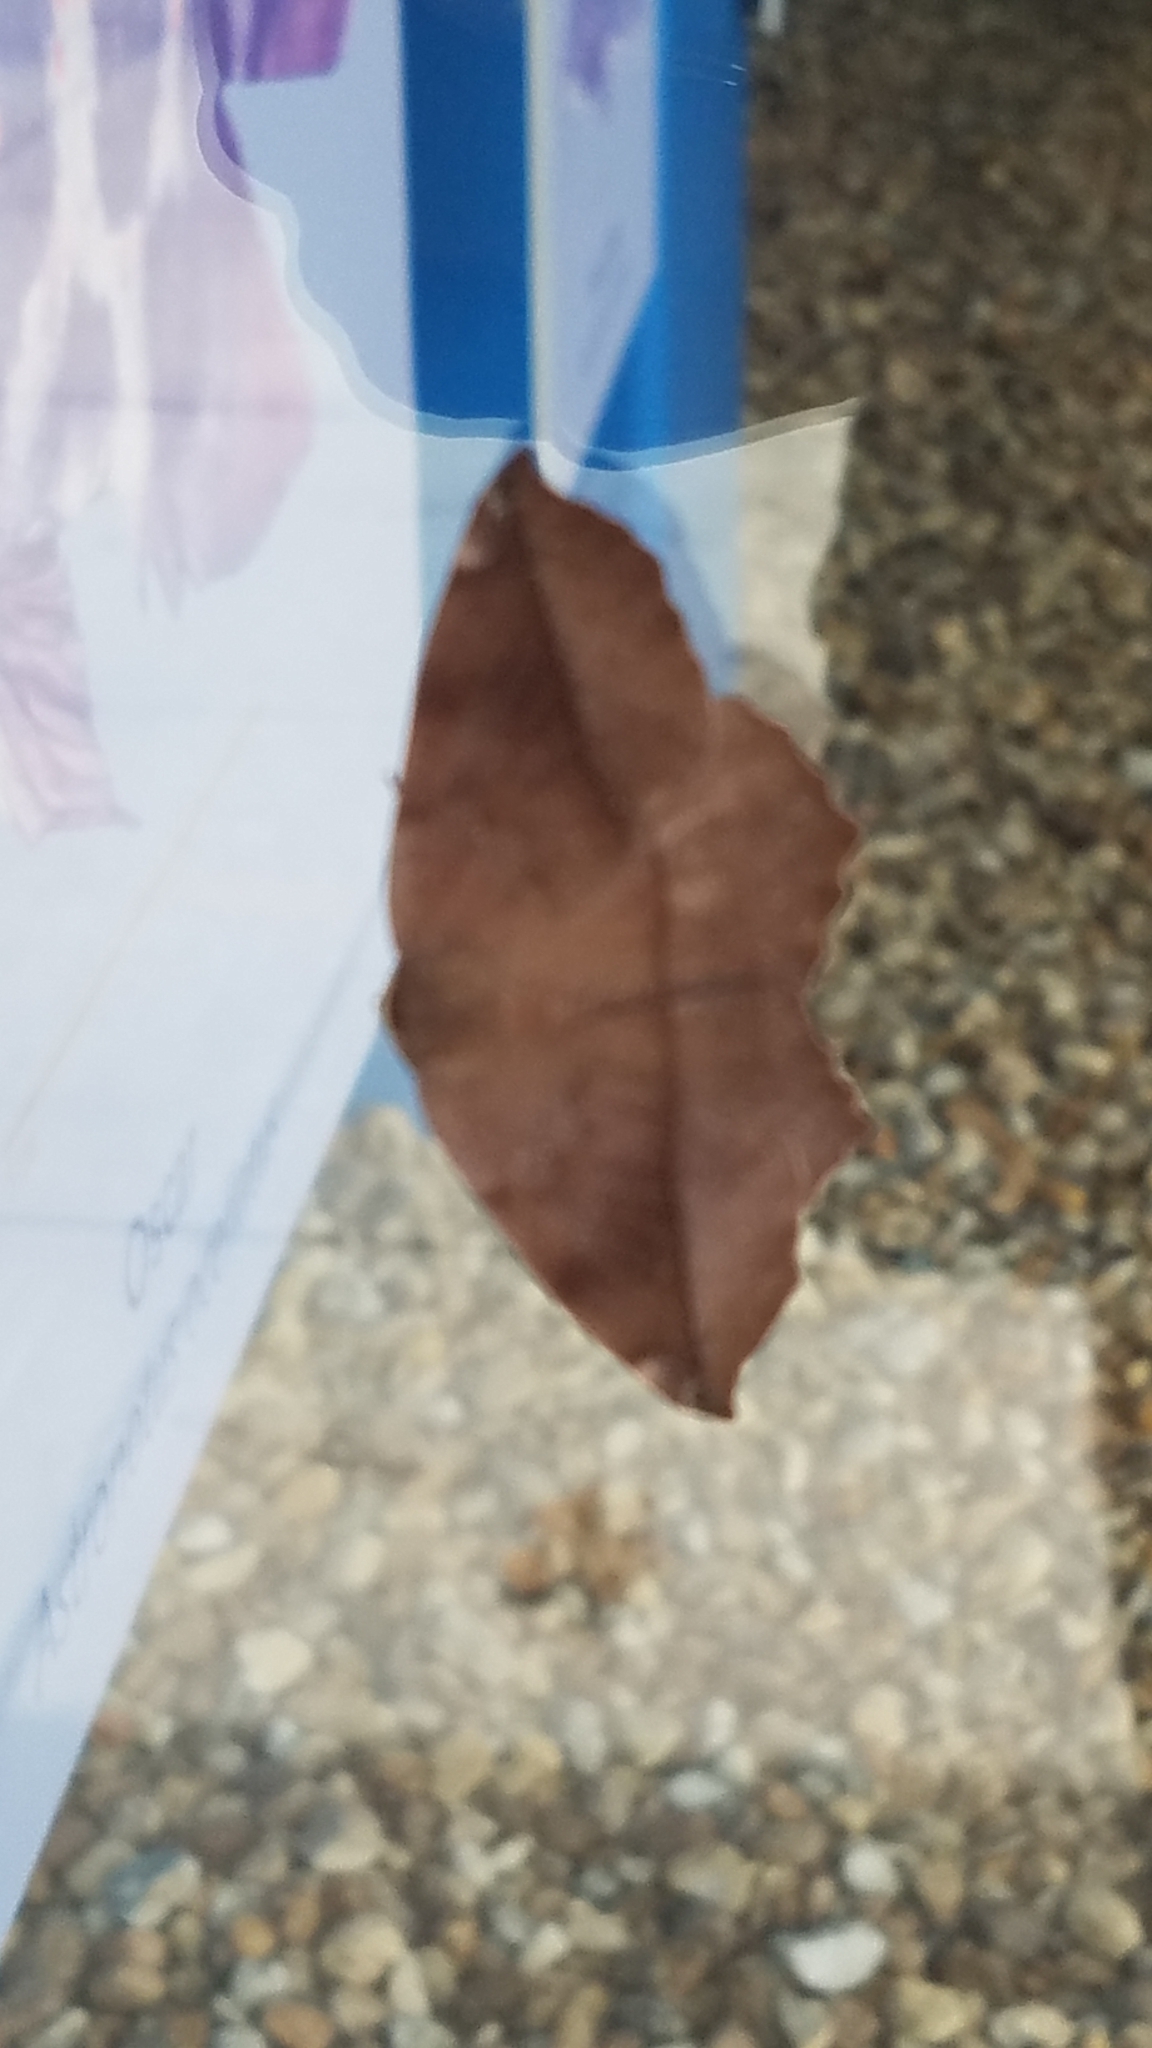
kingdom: Animalia
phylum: Arthropoda
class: Insecta
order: Lepidoptera
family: Geometridae
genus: Eutrapela
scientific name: Eutrapela clemataria
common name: Curved-toothed geometer
